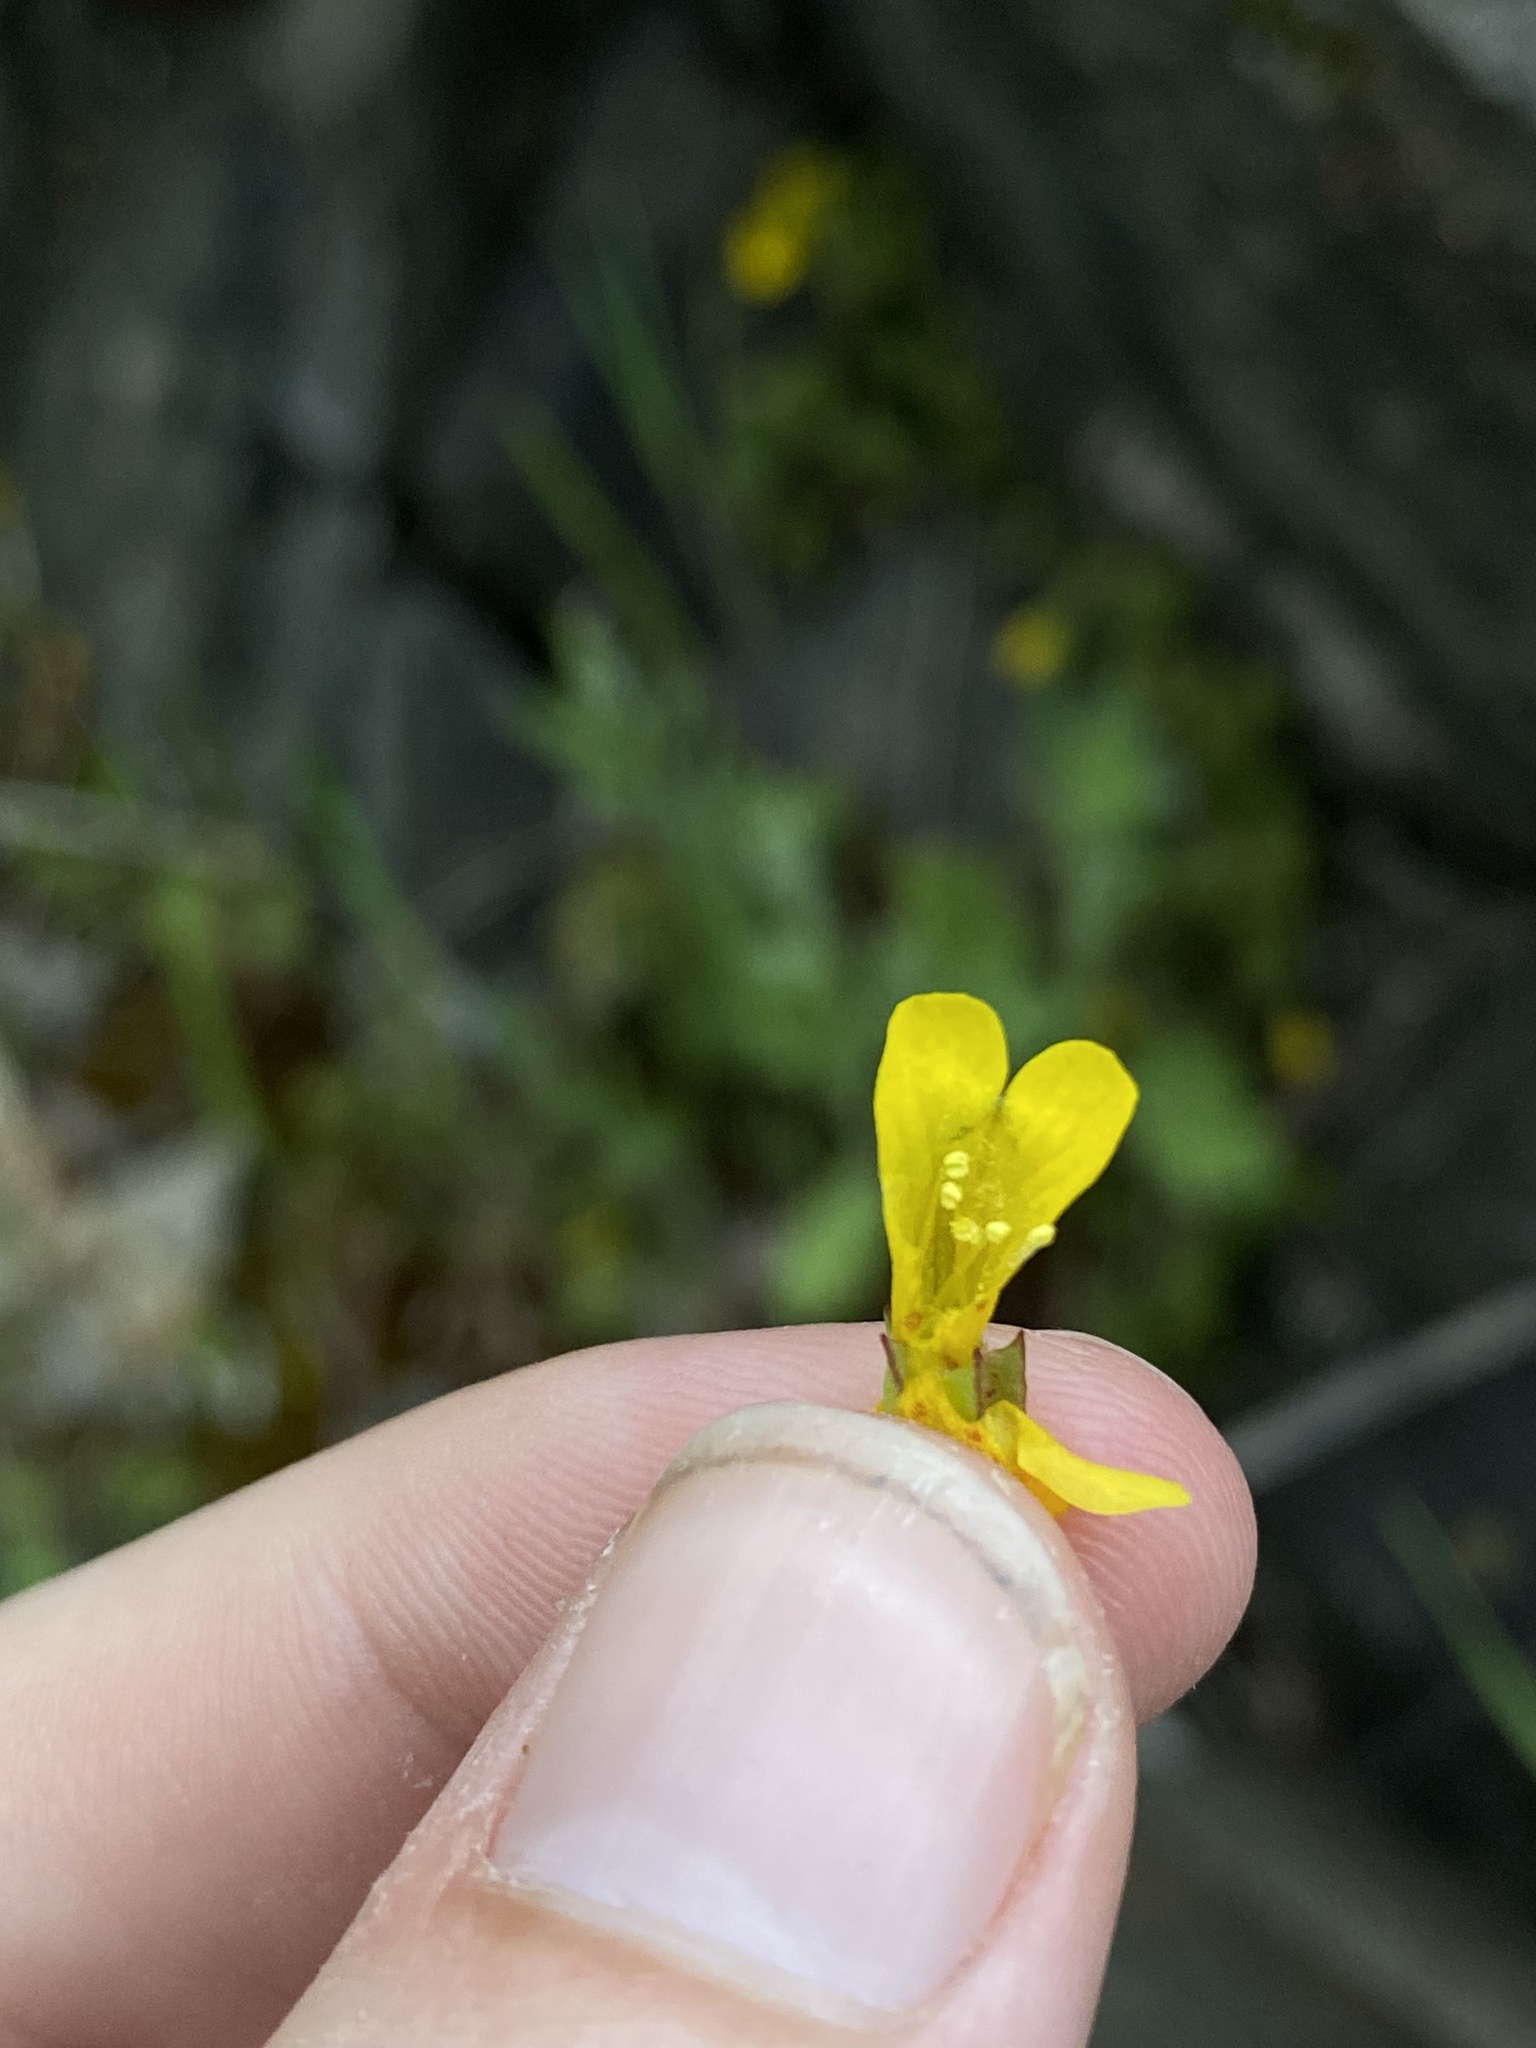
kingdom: Plantae
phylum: Tracheophyta
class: Magnoliopsida
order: Lamiales
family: Phrymaceae
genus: Erythranthe
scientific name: Erythranthe nasuta
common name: Sooke monkeyflower
